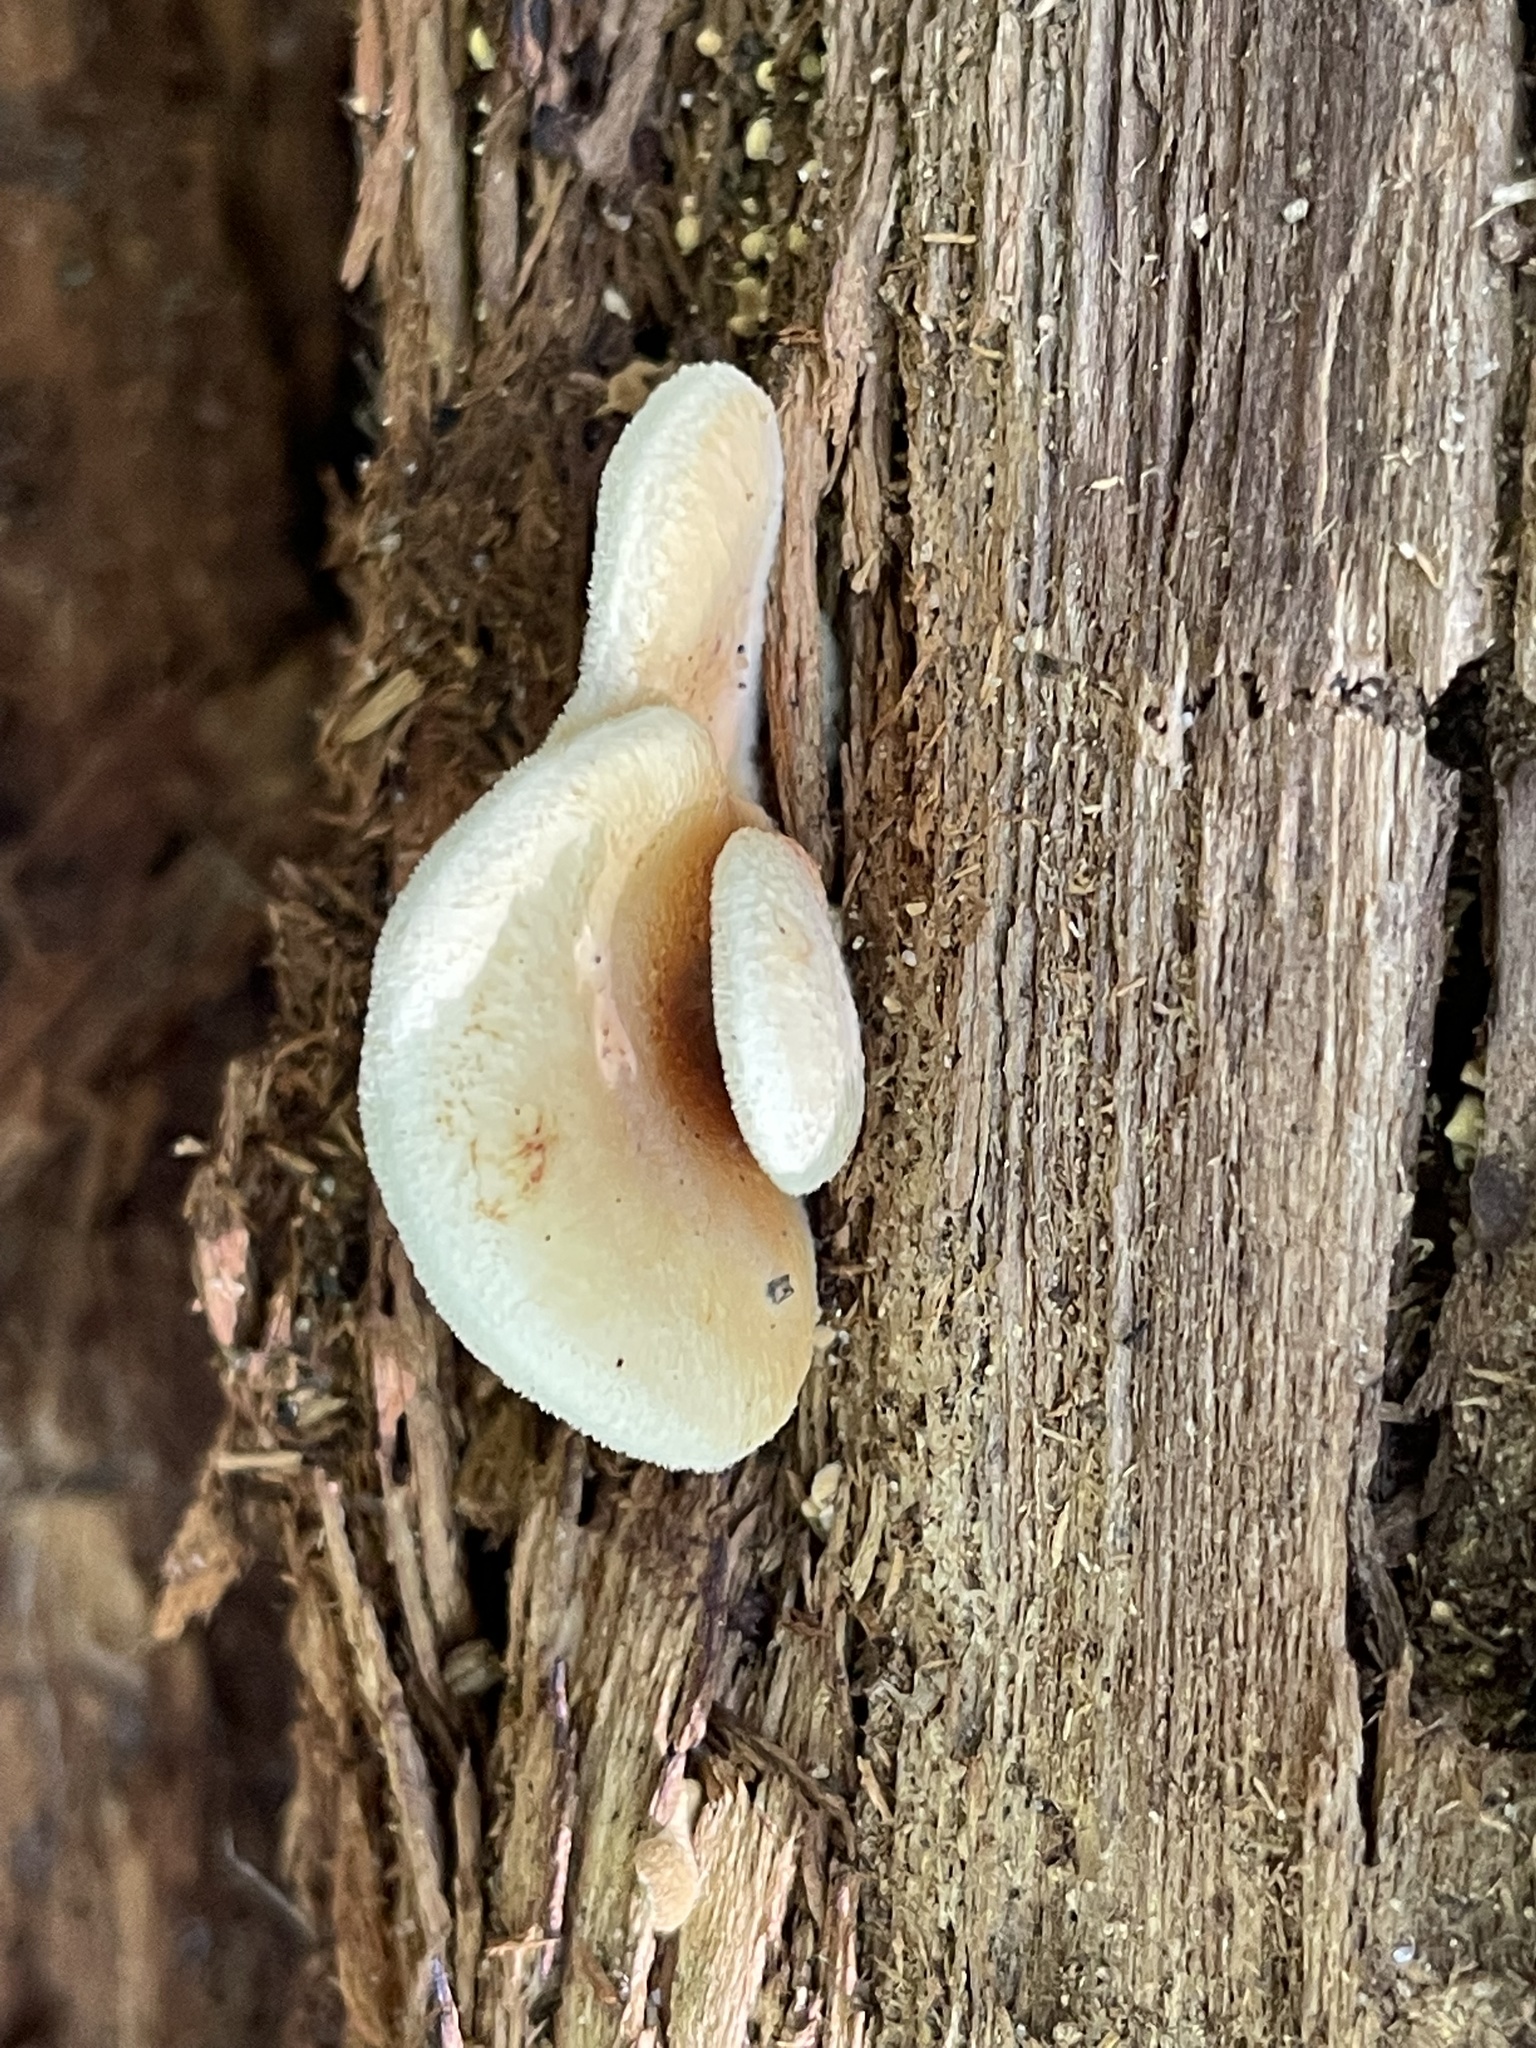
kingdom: Fungi
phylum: Basidiomycota
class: Agaricomycetes
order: Boletales
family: Tapinellaceae
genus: Tapinella
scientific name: Tapinella panuoides
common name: Oyster rollrim
